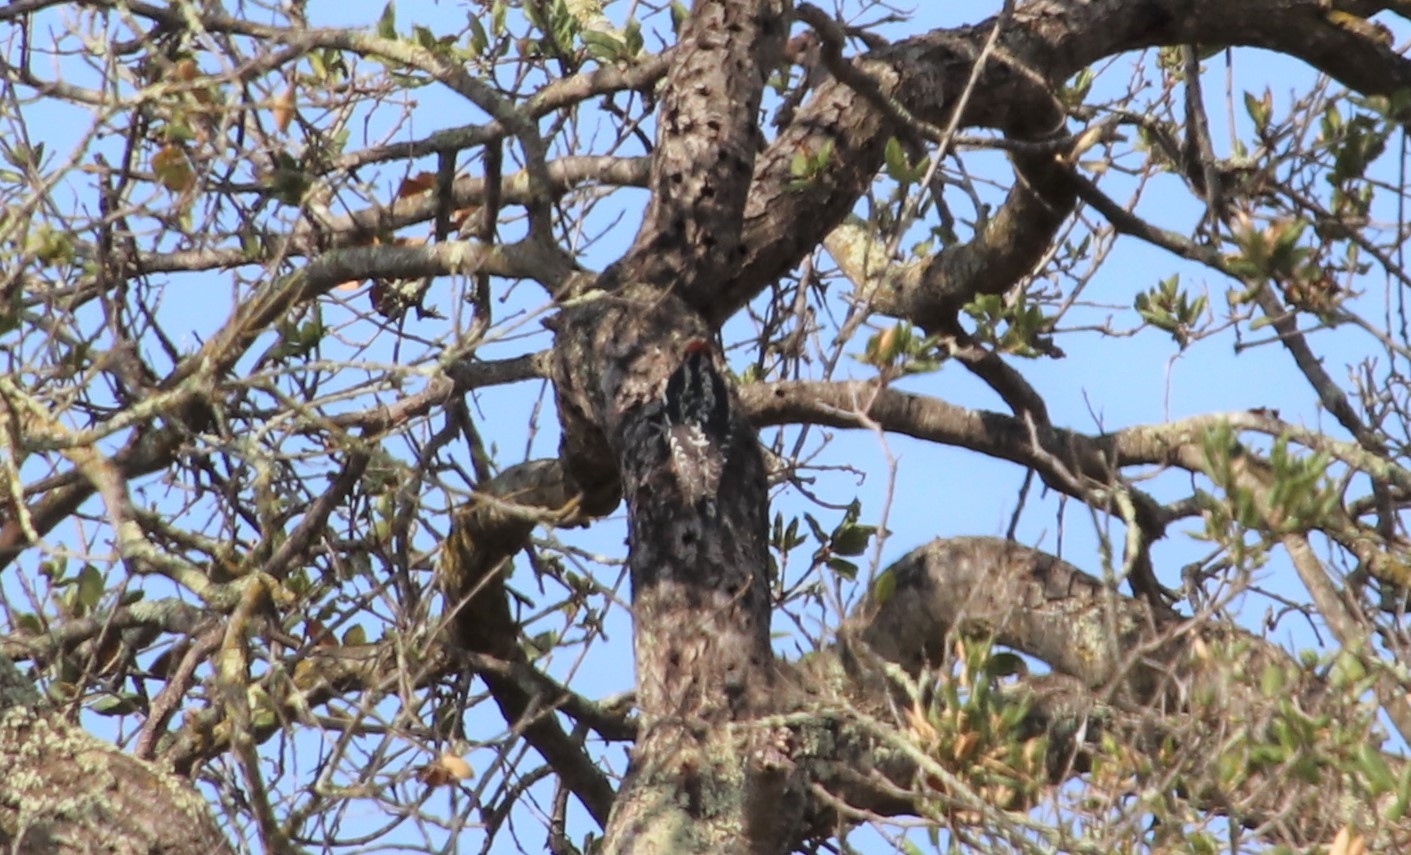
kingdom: Animalia
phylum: Chordata
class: Aves
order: Piciformes
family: Picidae
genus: Sphyrapicus
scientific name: Sphyrapicus ruber
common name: Red-breasted sapsucker
